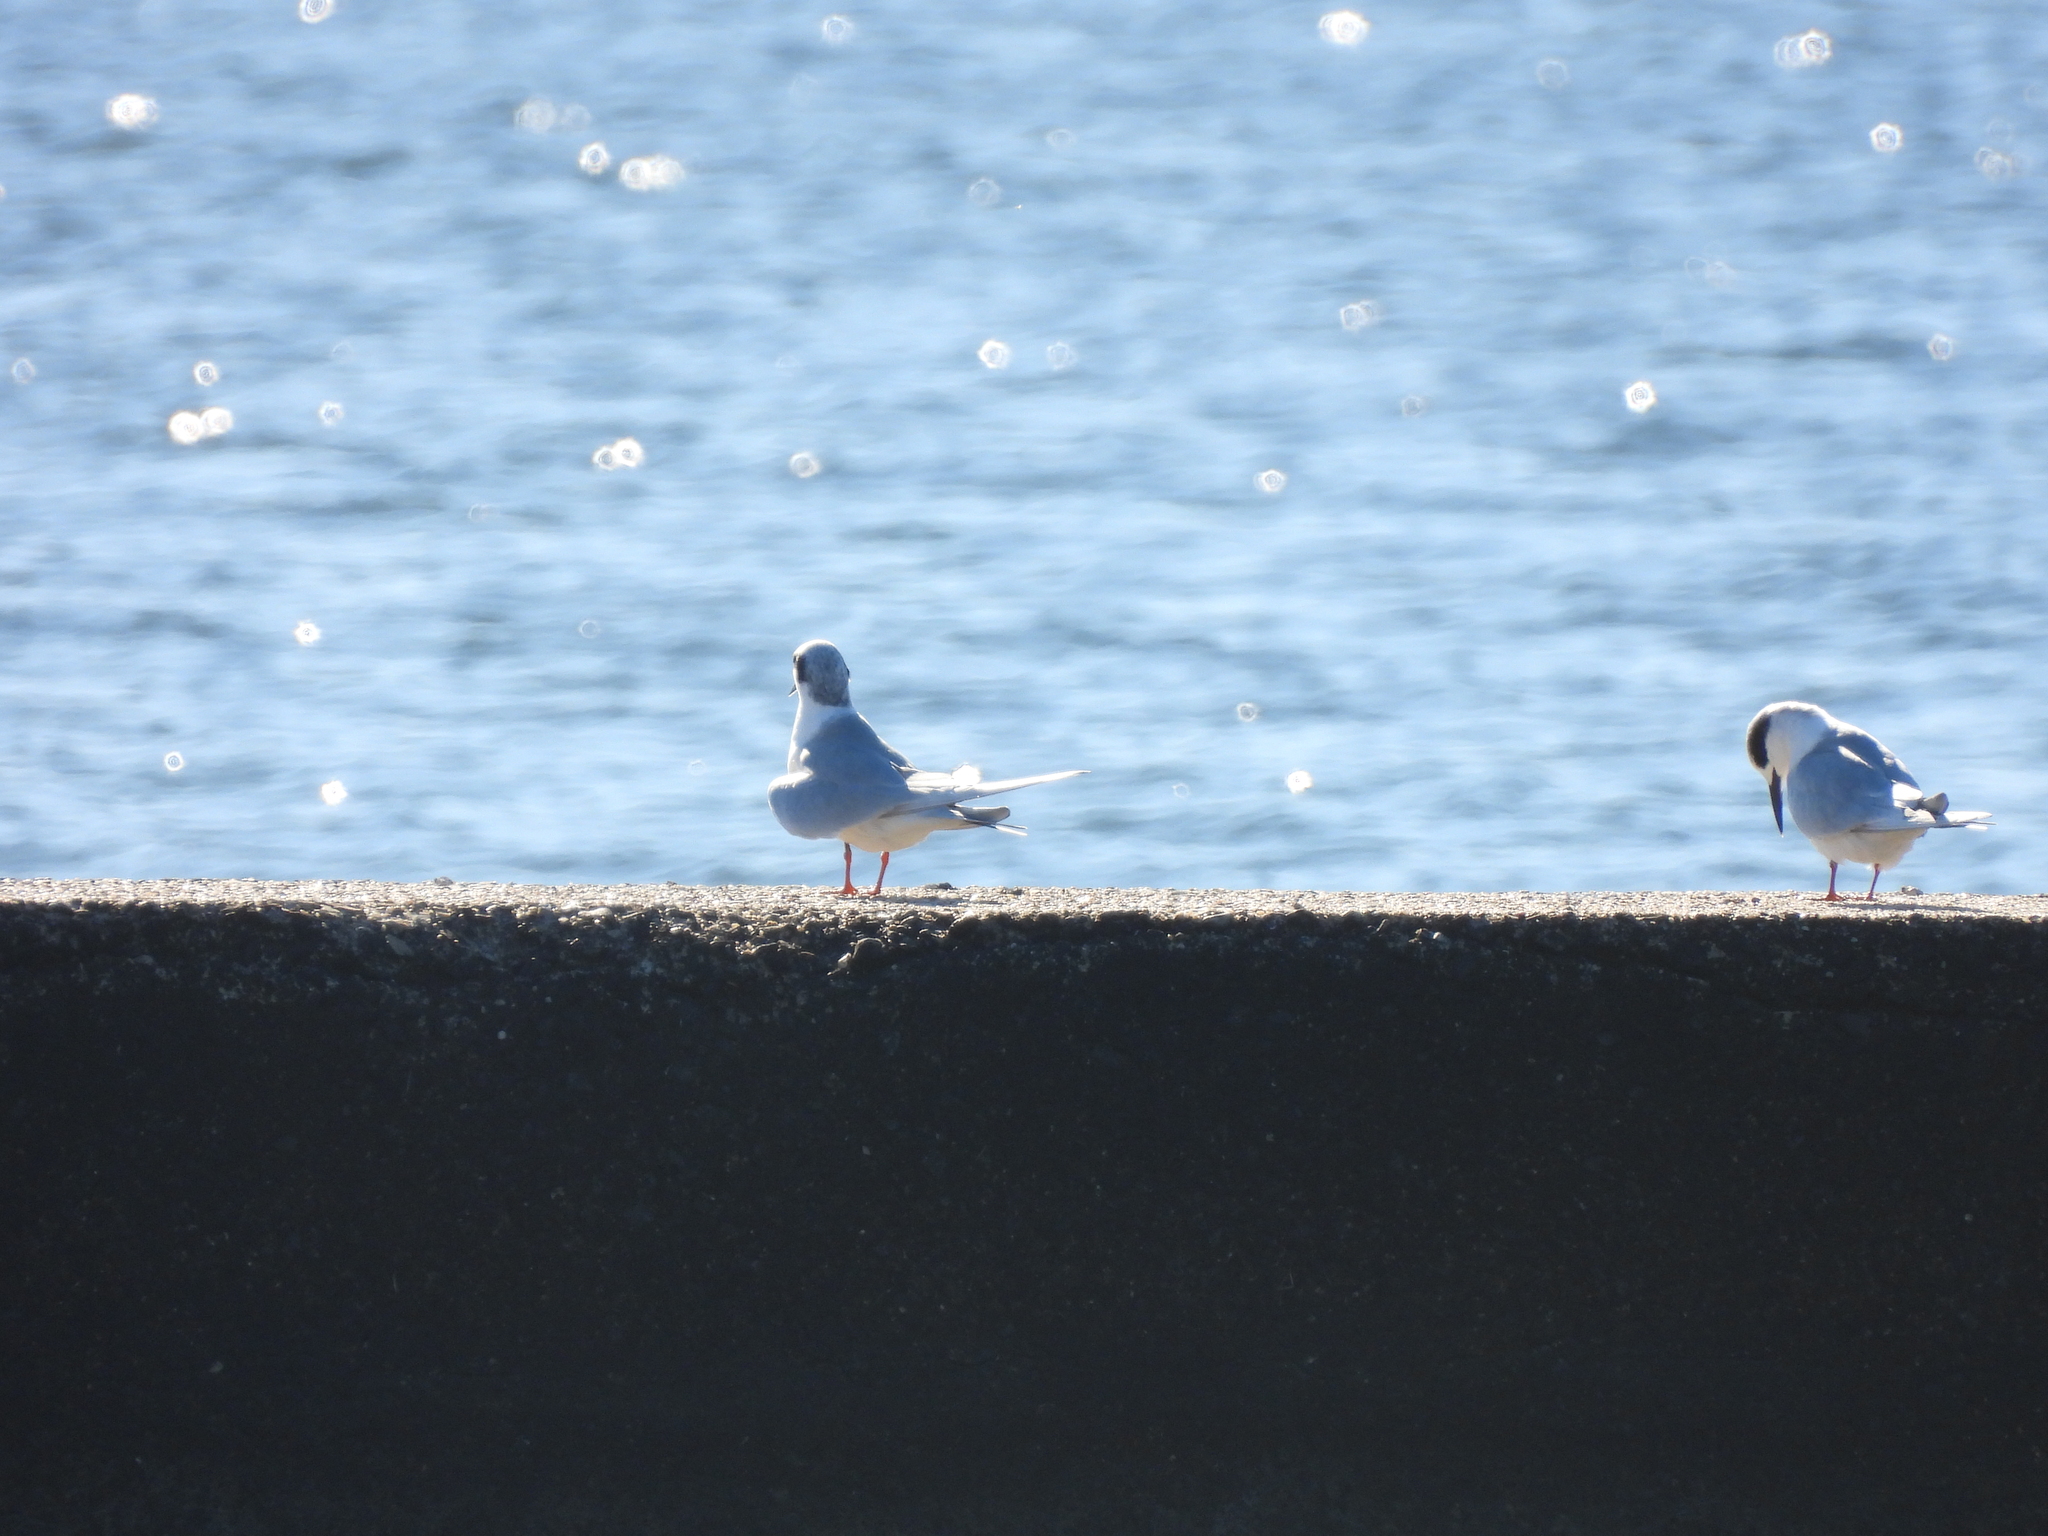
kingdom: Animalia
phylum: Chordata
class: Aves
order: Charadriiformes
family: Laridae
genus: Sterna
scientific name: Sterna forsteri
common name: Forster's tern
